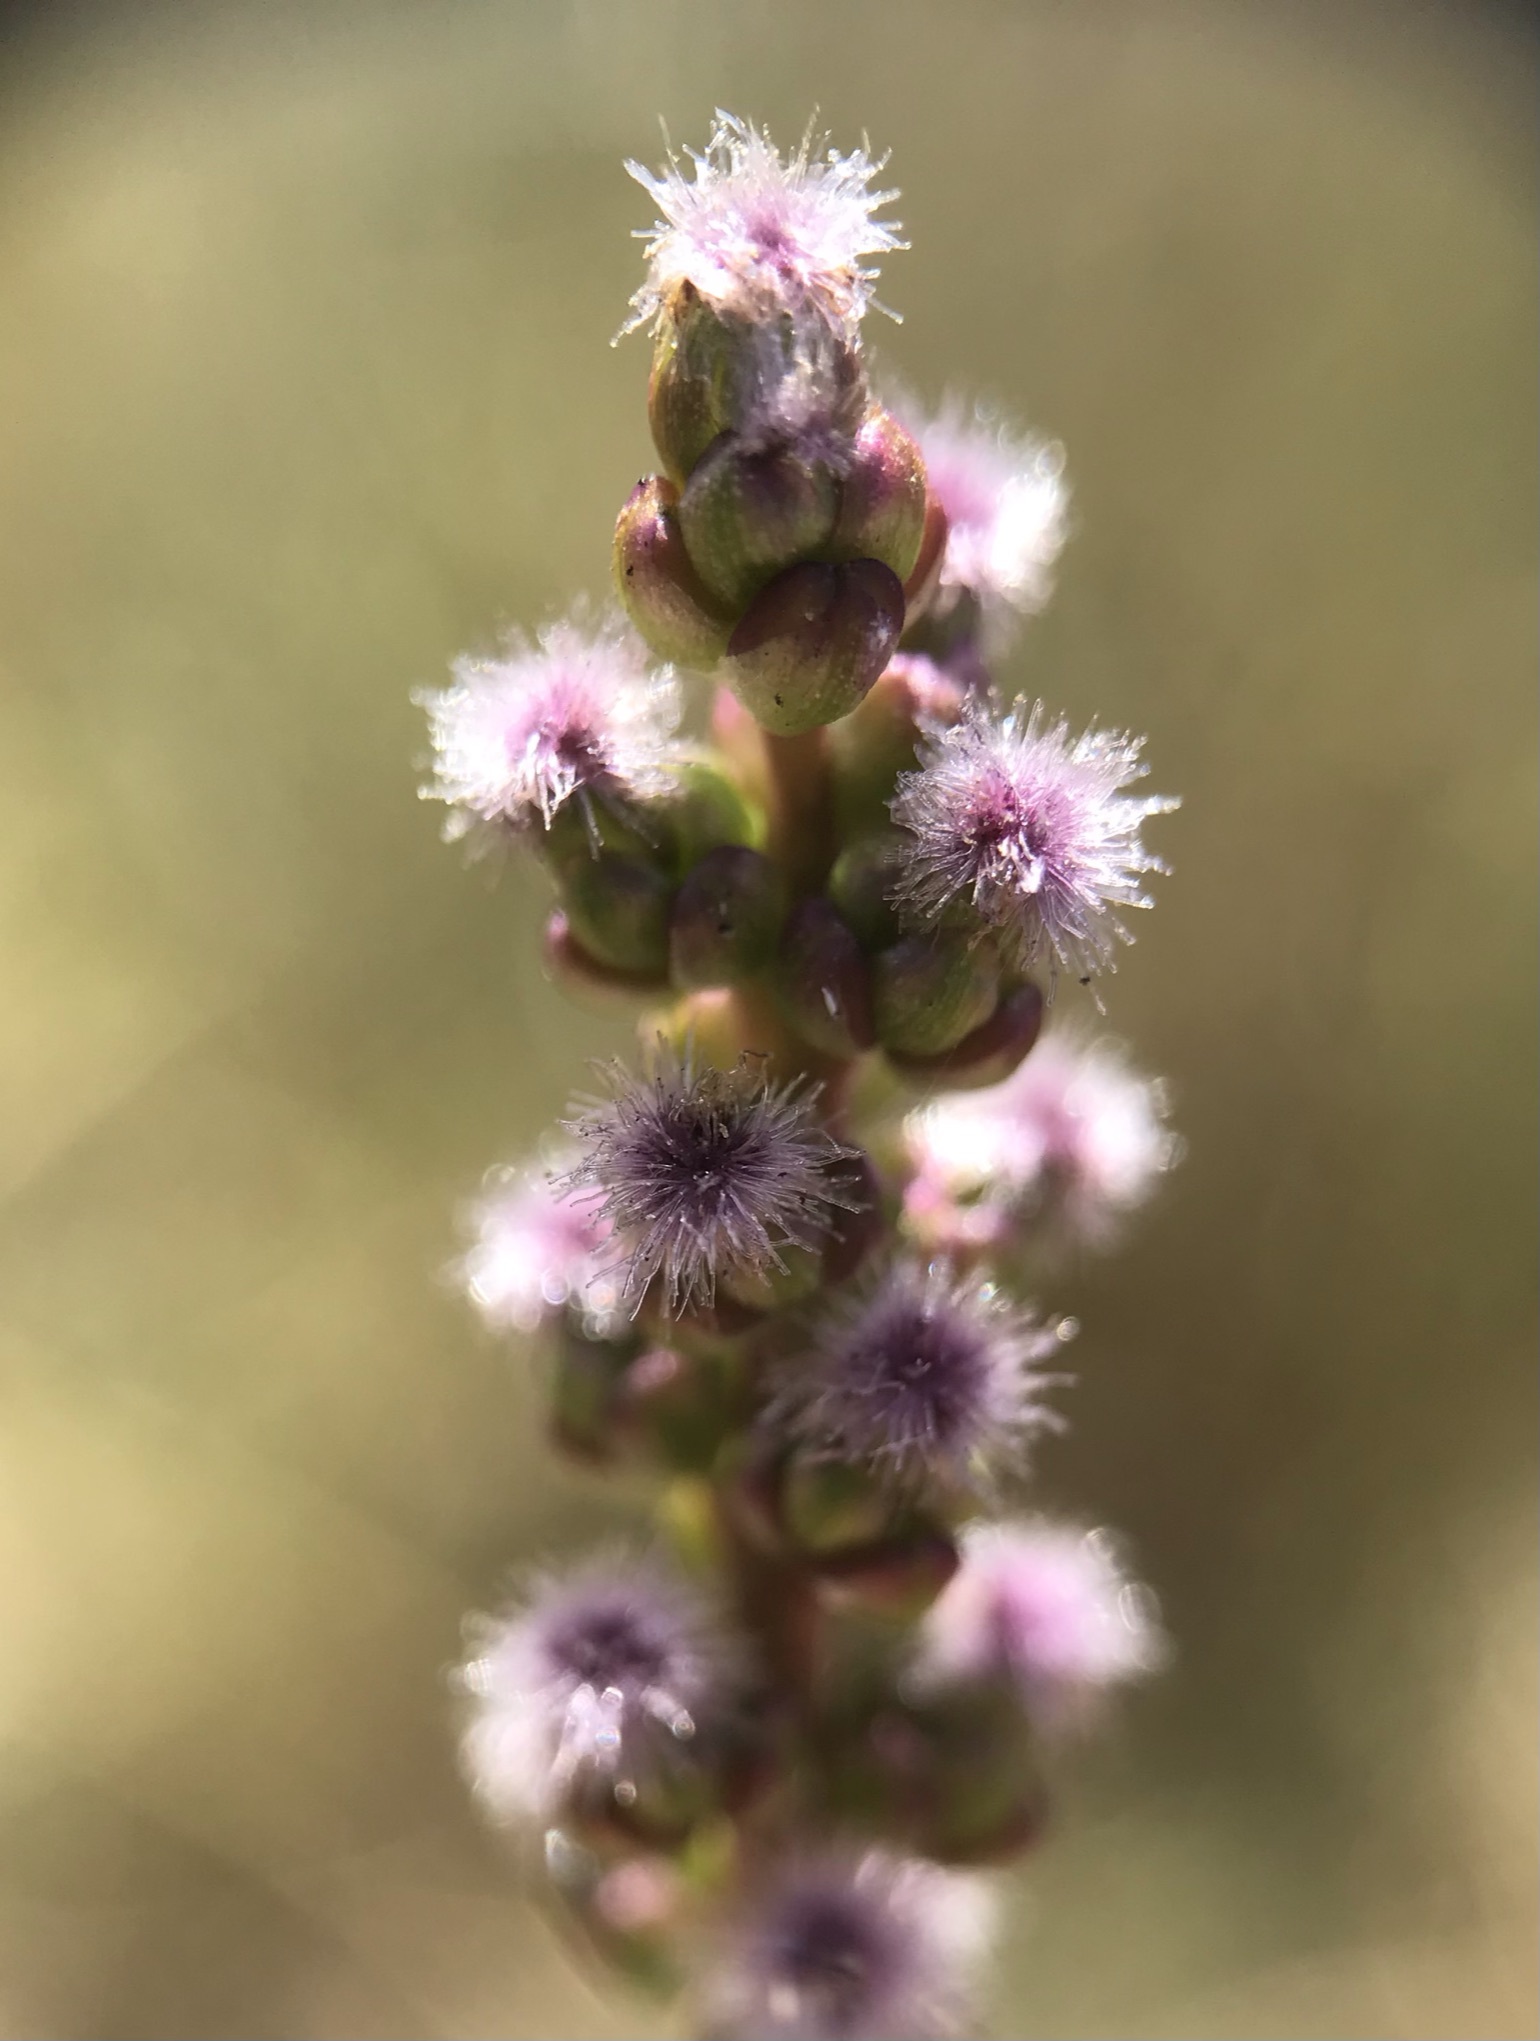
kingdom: Plantae
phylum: Tracheophyta
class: Liliopsida
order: Alismatales
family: Juncaginaceae
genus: Triglochin
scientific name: Triglochin maritima
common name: Sea arrowgrass
